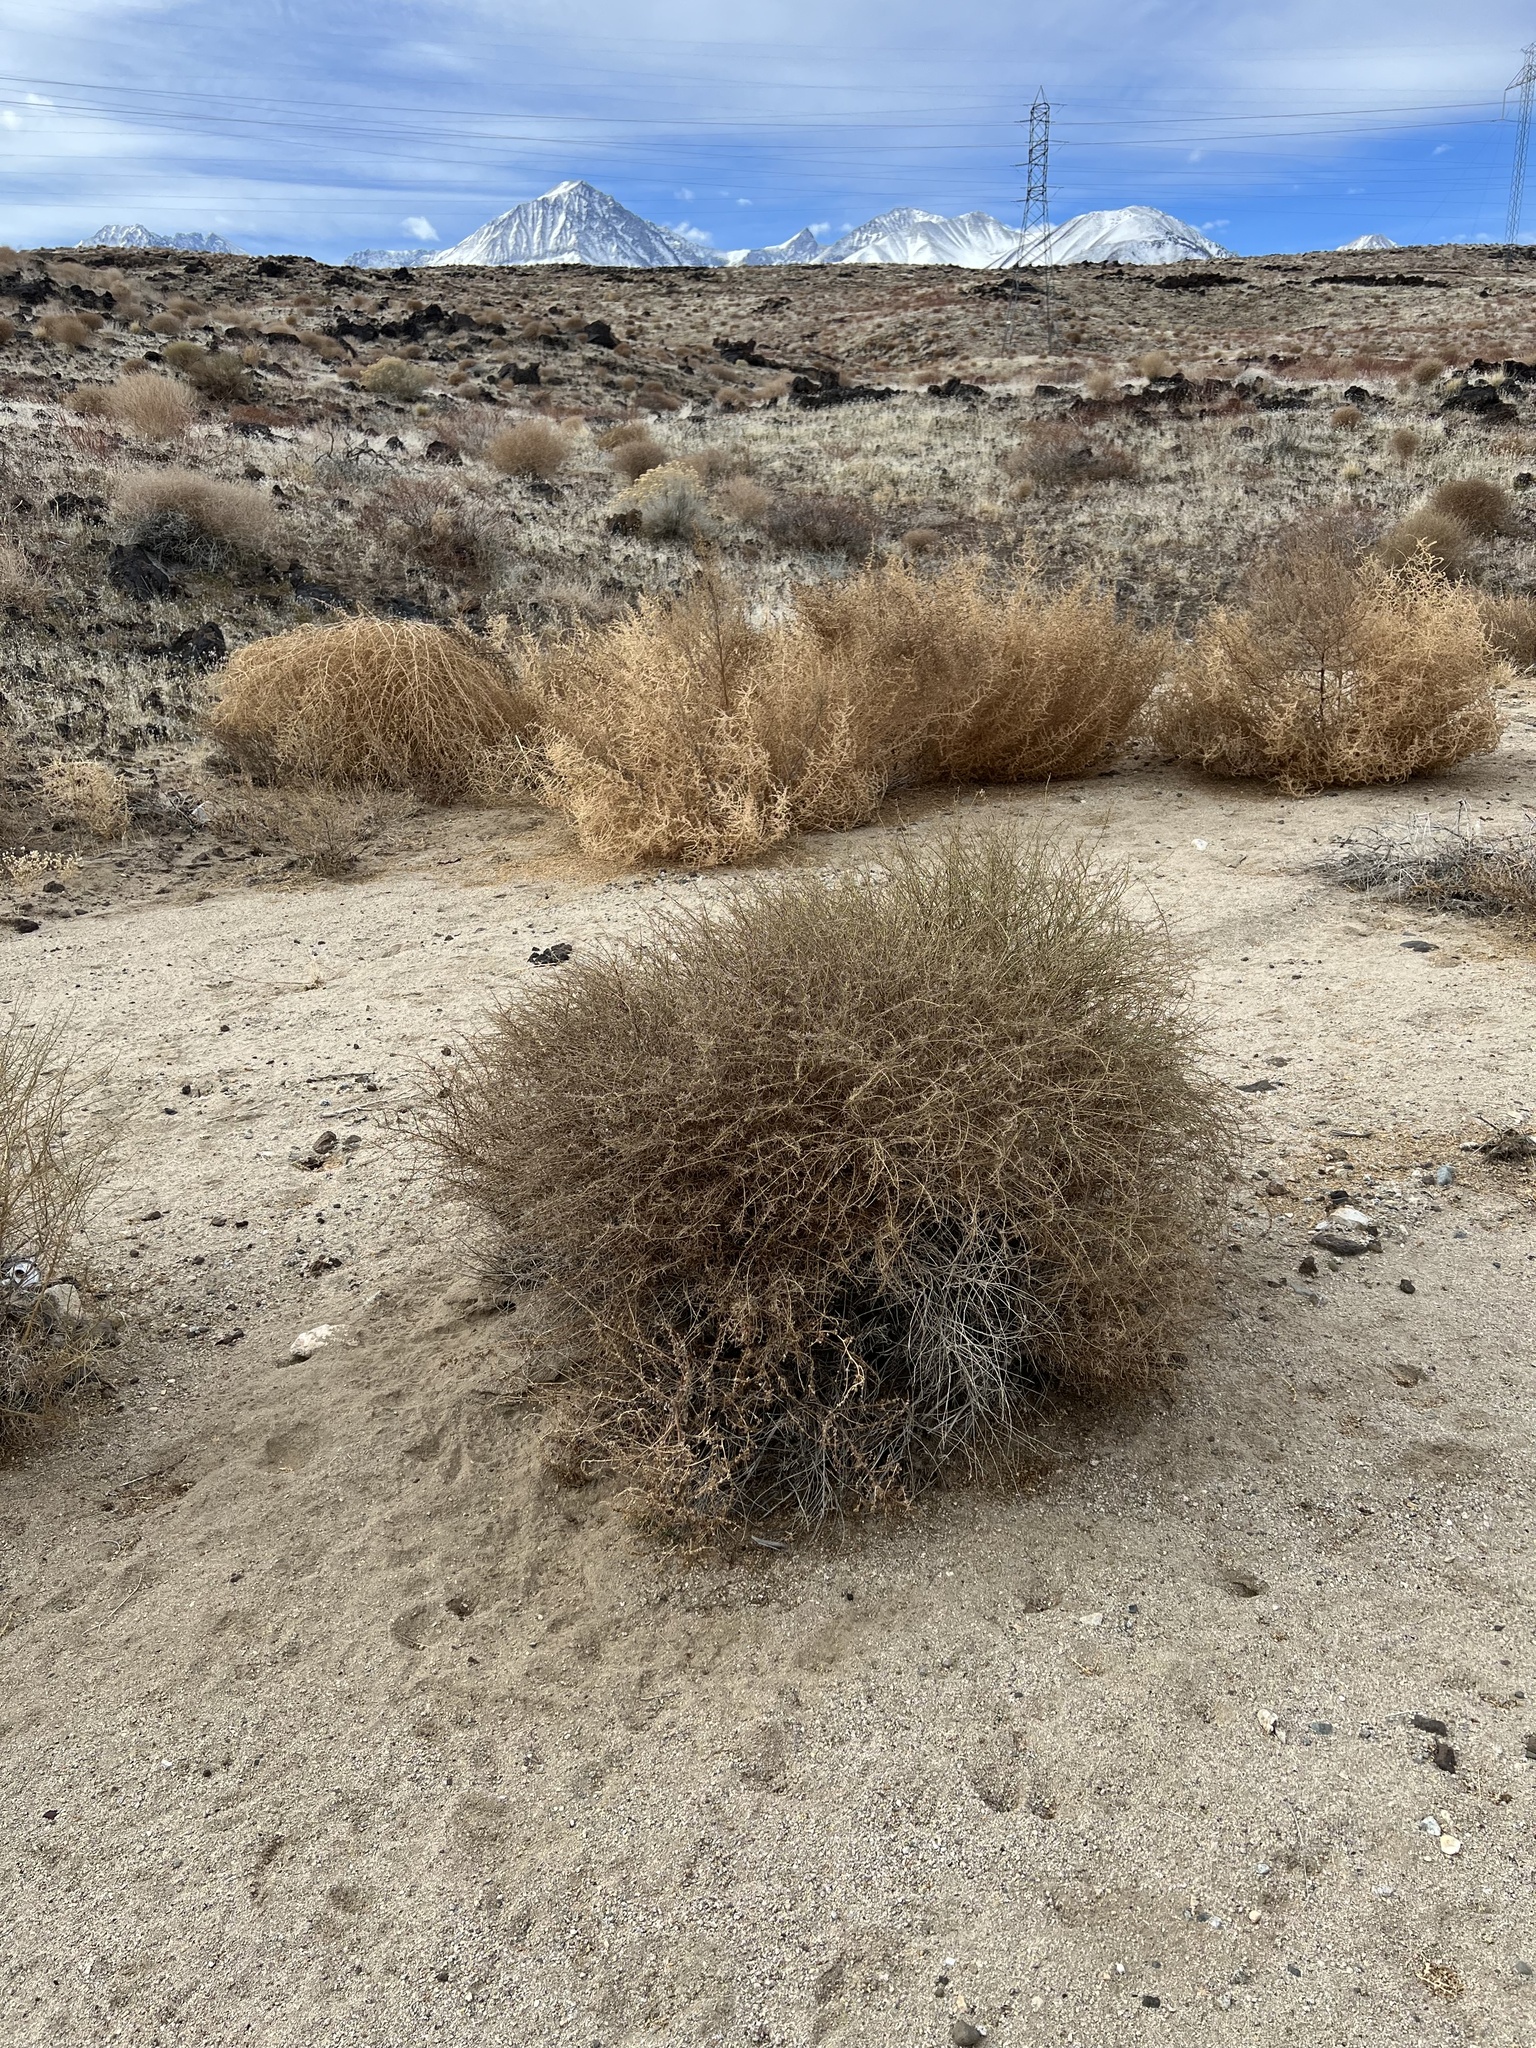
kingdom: Plantae
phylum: Tracheophyta
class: Magnoliopsida
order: Asterales
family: Asteraceae
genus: Ambrosia
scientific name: Ambrosia salsola
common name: Burrobrush
